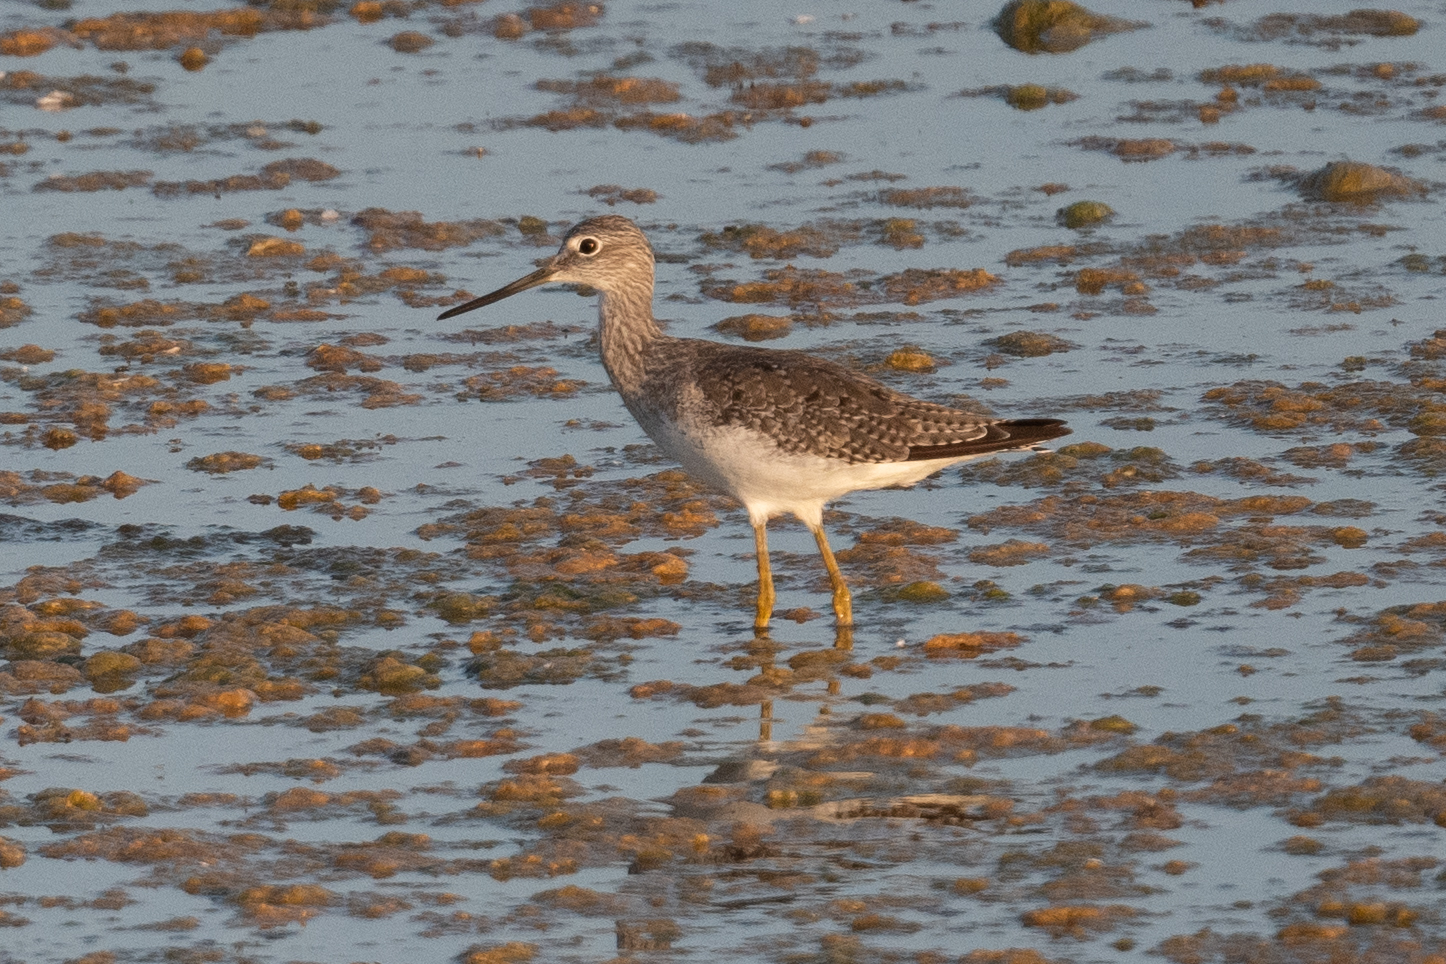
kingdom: Animalia
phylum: Chordata
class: Aves
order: Charadriiformes
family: Scolopacidae
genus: Tringa
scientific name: Tringa melanoleuca
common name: Greater yellowlegs
